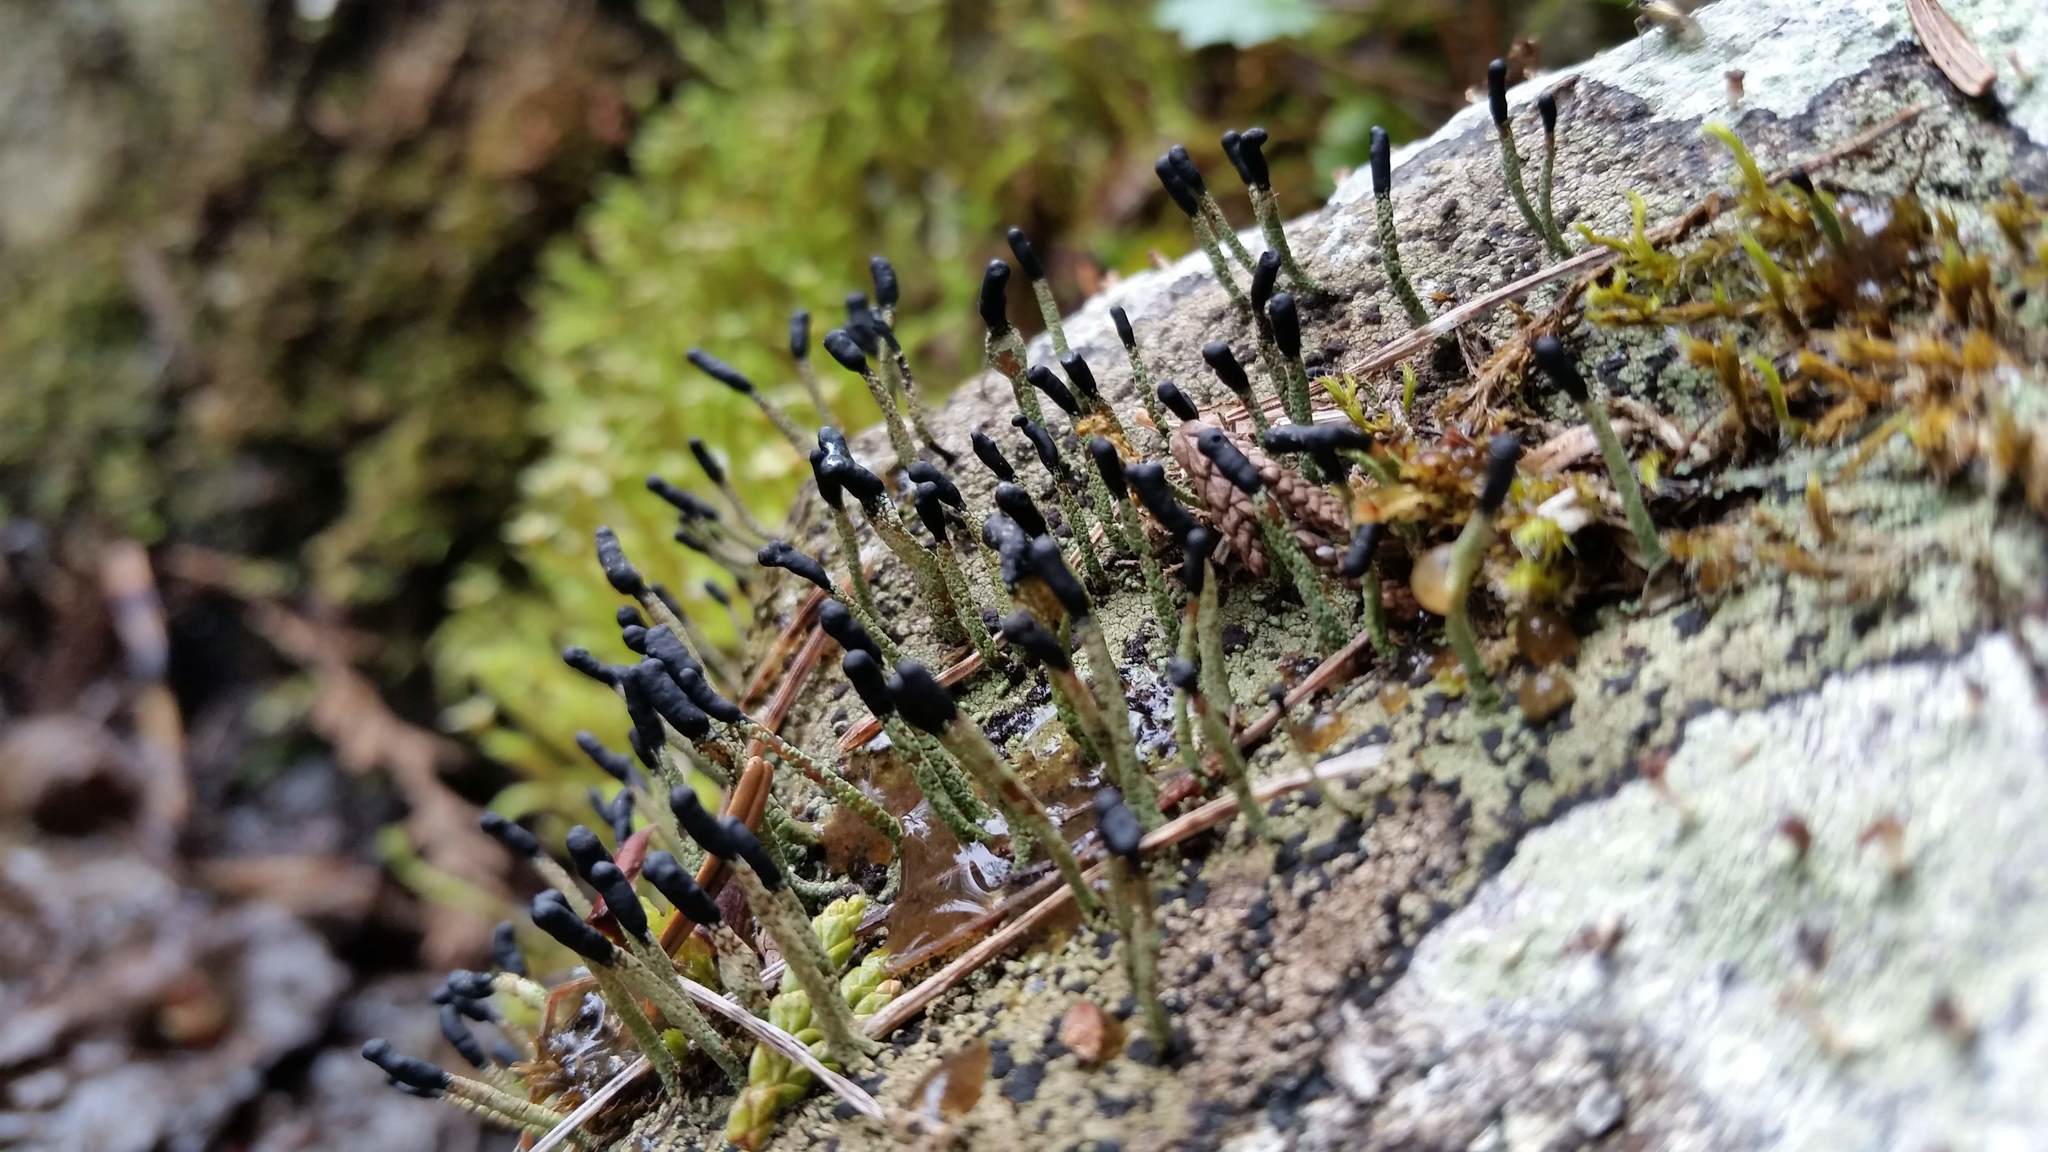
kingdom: Fungi
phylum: Ascomycota
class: Lecanoromycetes
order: Lecanorales
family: Cladoniaceae
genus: Pilophorus
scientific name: Pilophorus clavatus
